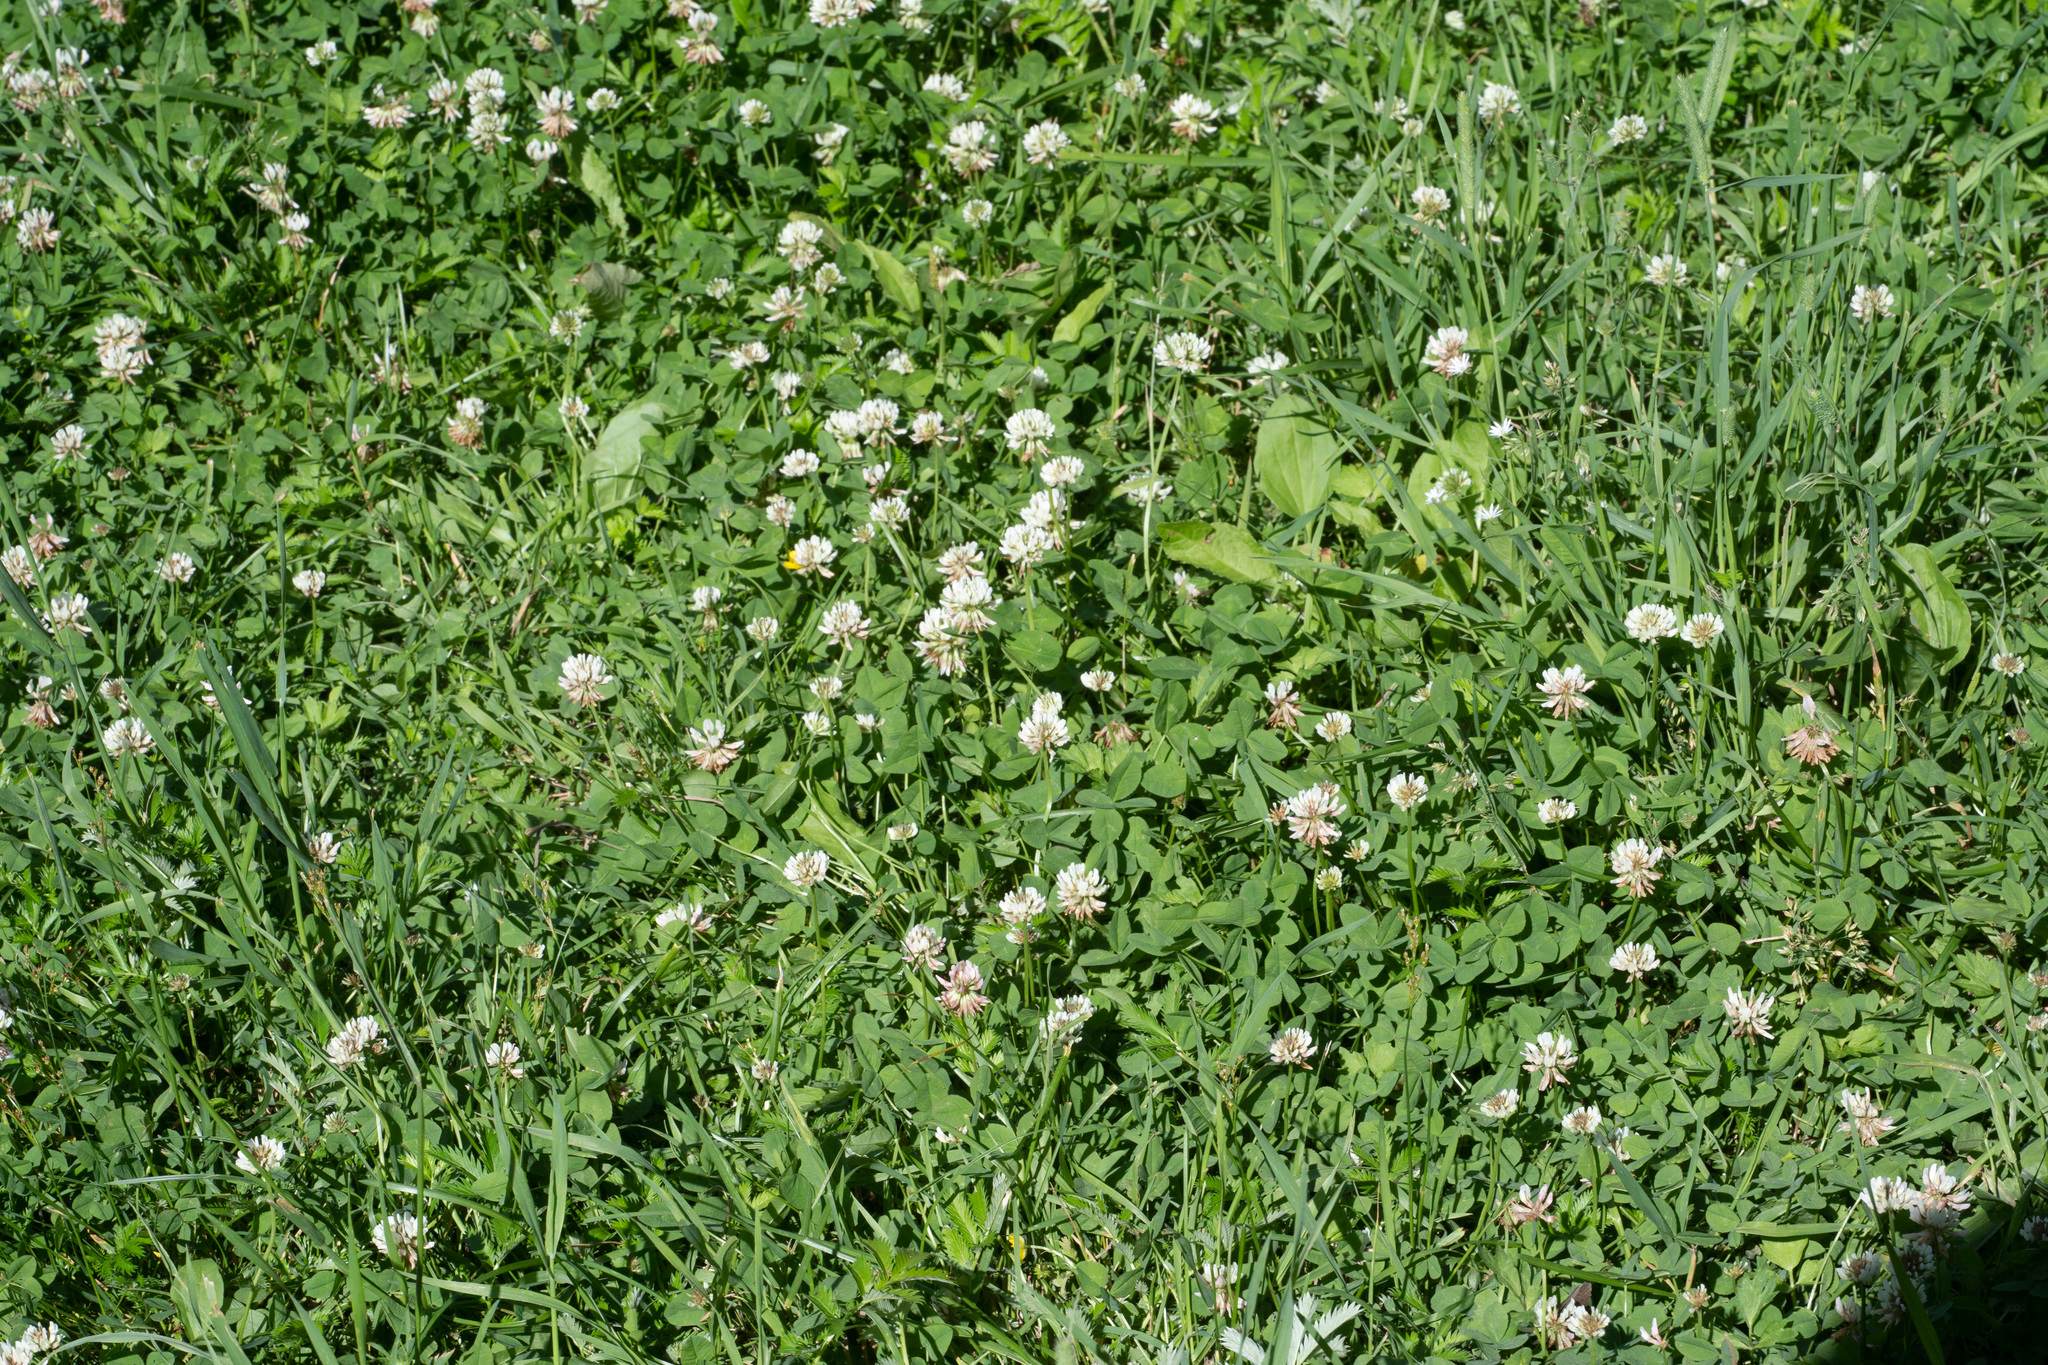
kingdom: Plantae
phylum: Tracheophyta
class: Magnoliopsida
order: Fabales
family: Fabaceae
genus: Trifolium
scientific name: Trifolium repens
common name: White clover
